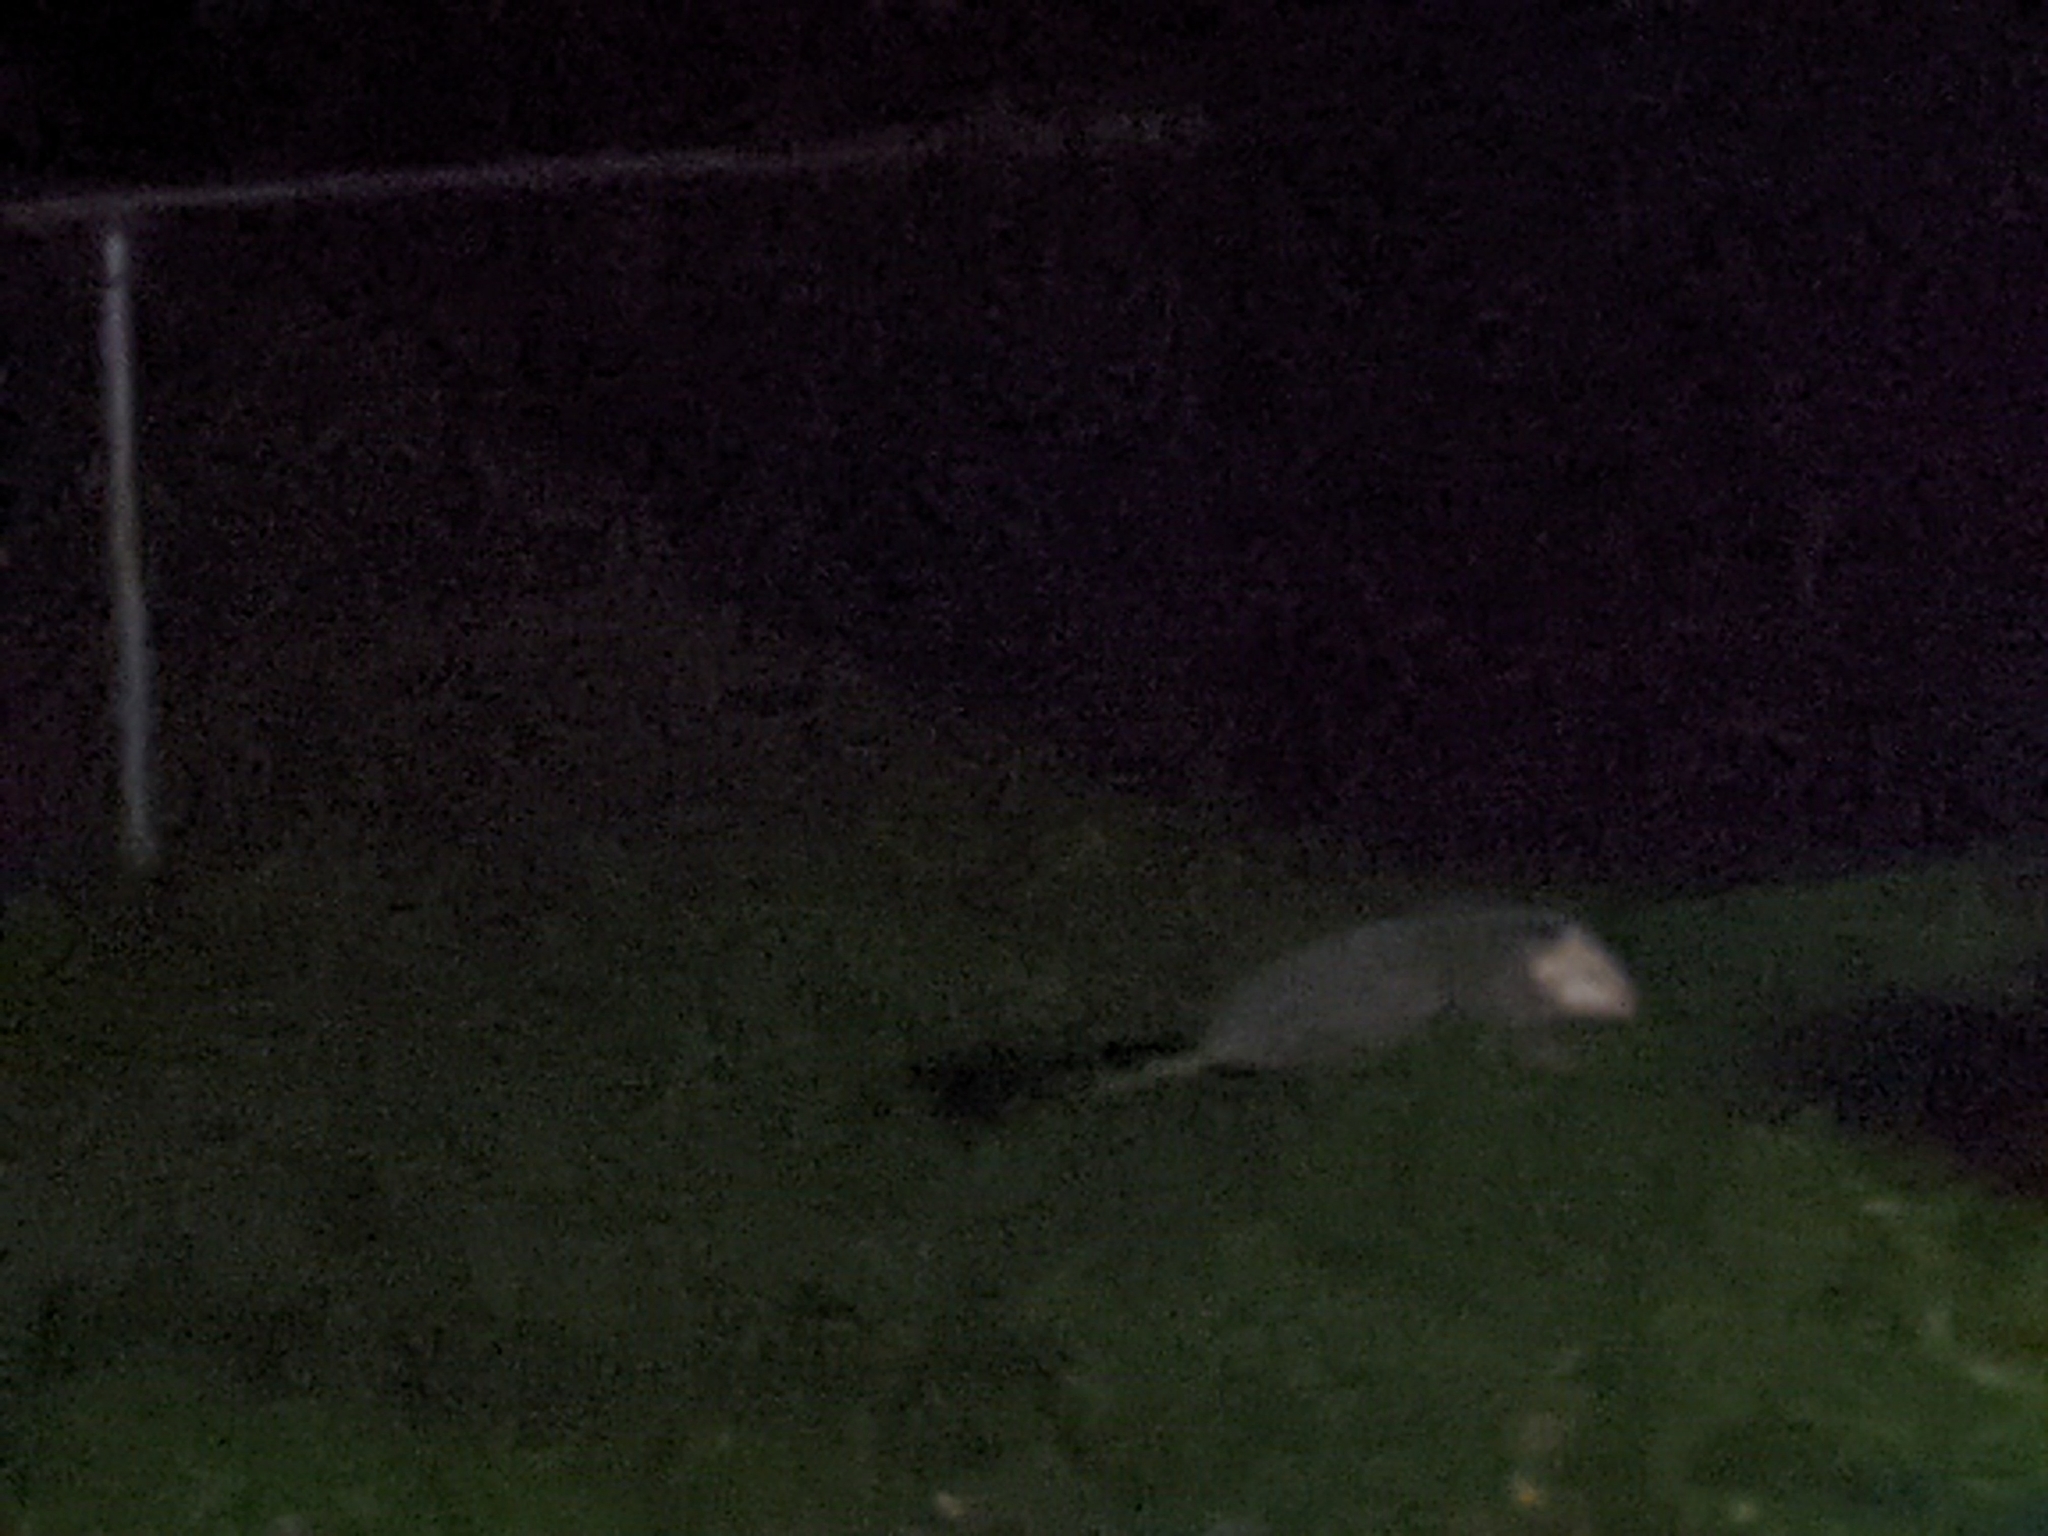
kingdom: Animalia
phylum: Chordata
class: Mammalia
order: Didelphimorphia
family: Didelphidae
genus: Didelphis
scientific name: Didelphis virginiana
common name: Virginia opossum
